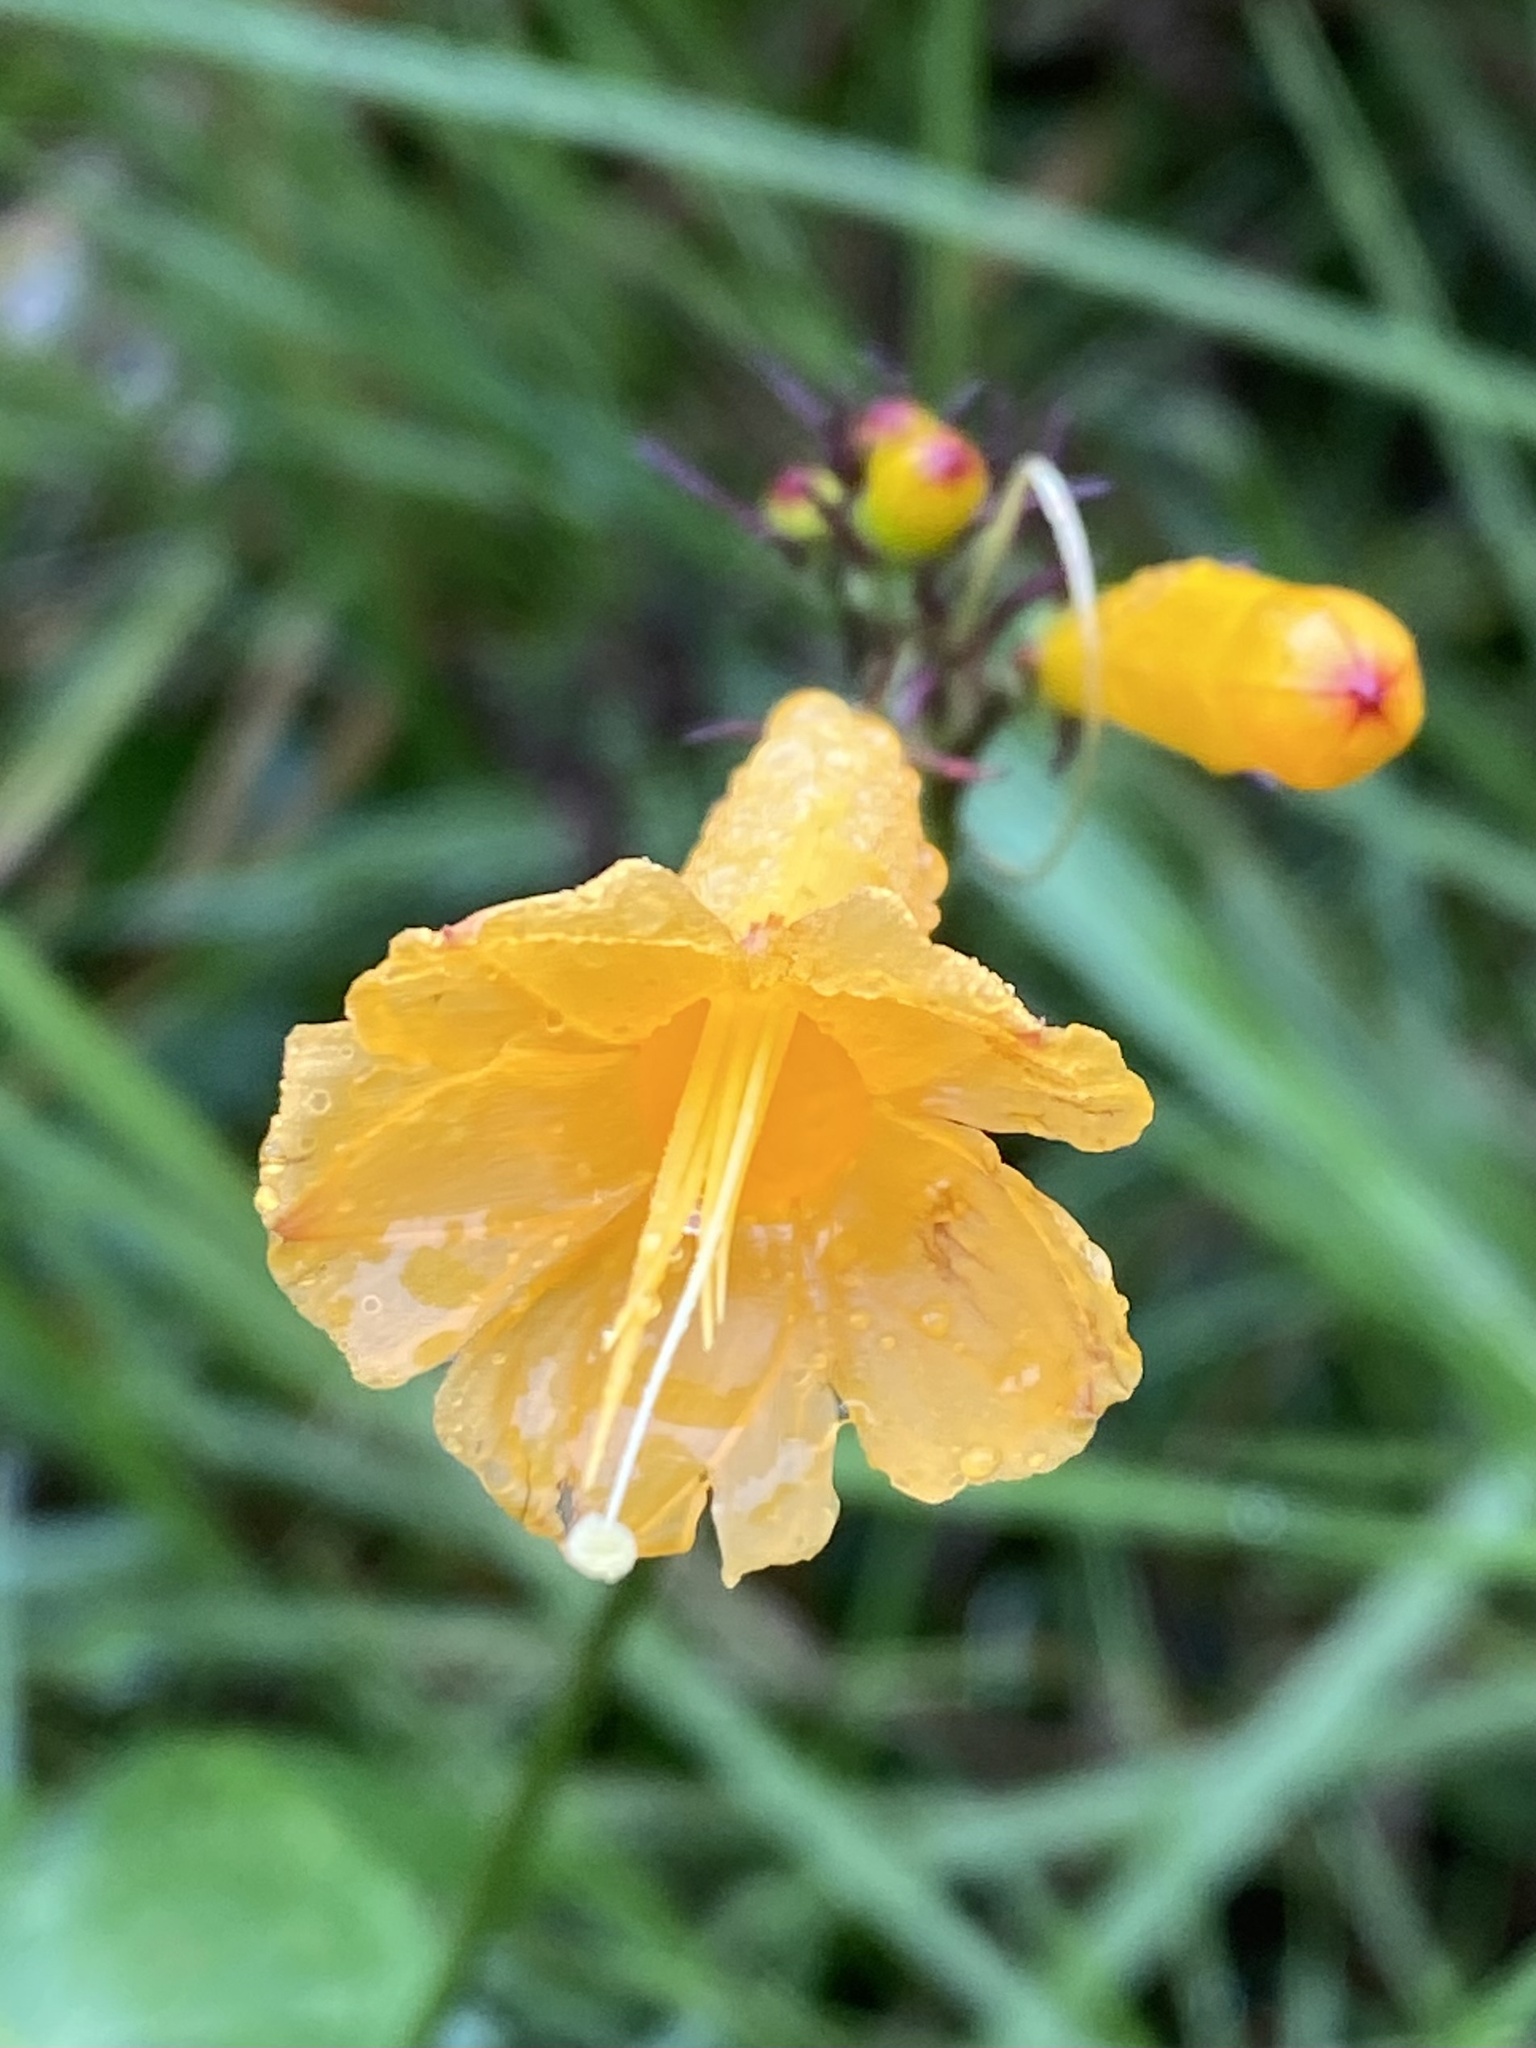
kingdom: Plantae
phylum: Tracheophyta
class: Magnoliopsida
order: Solanales
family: Convolvulaceae
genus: Ipomoea
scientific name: Ipomoea lutea
